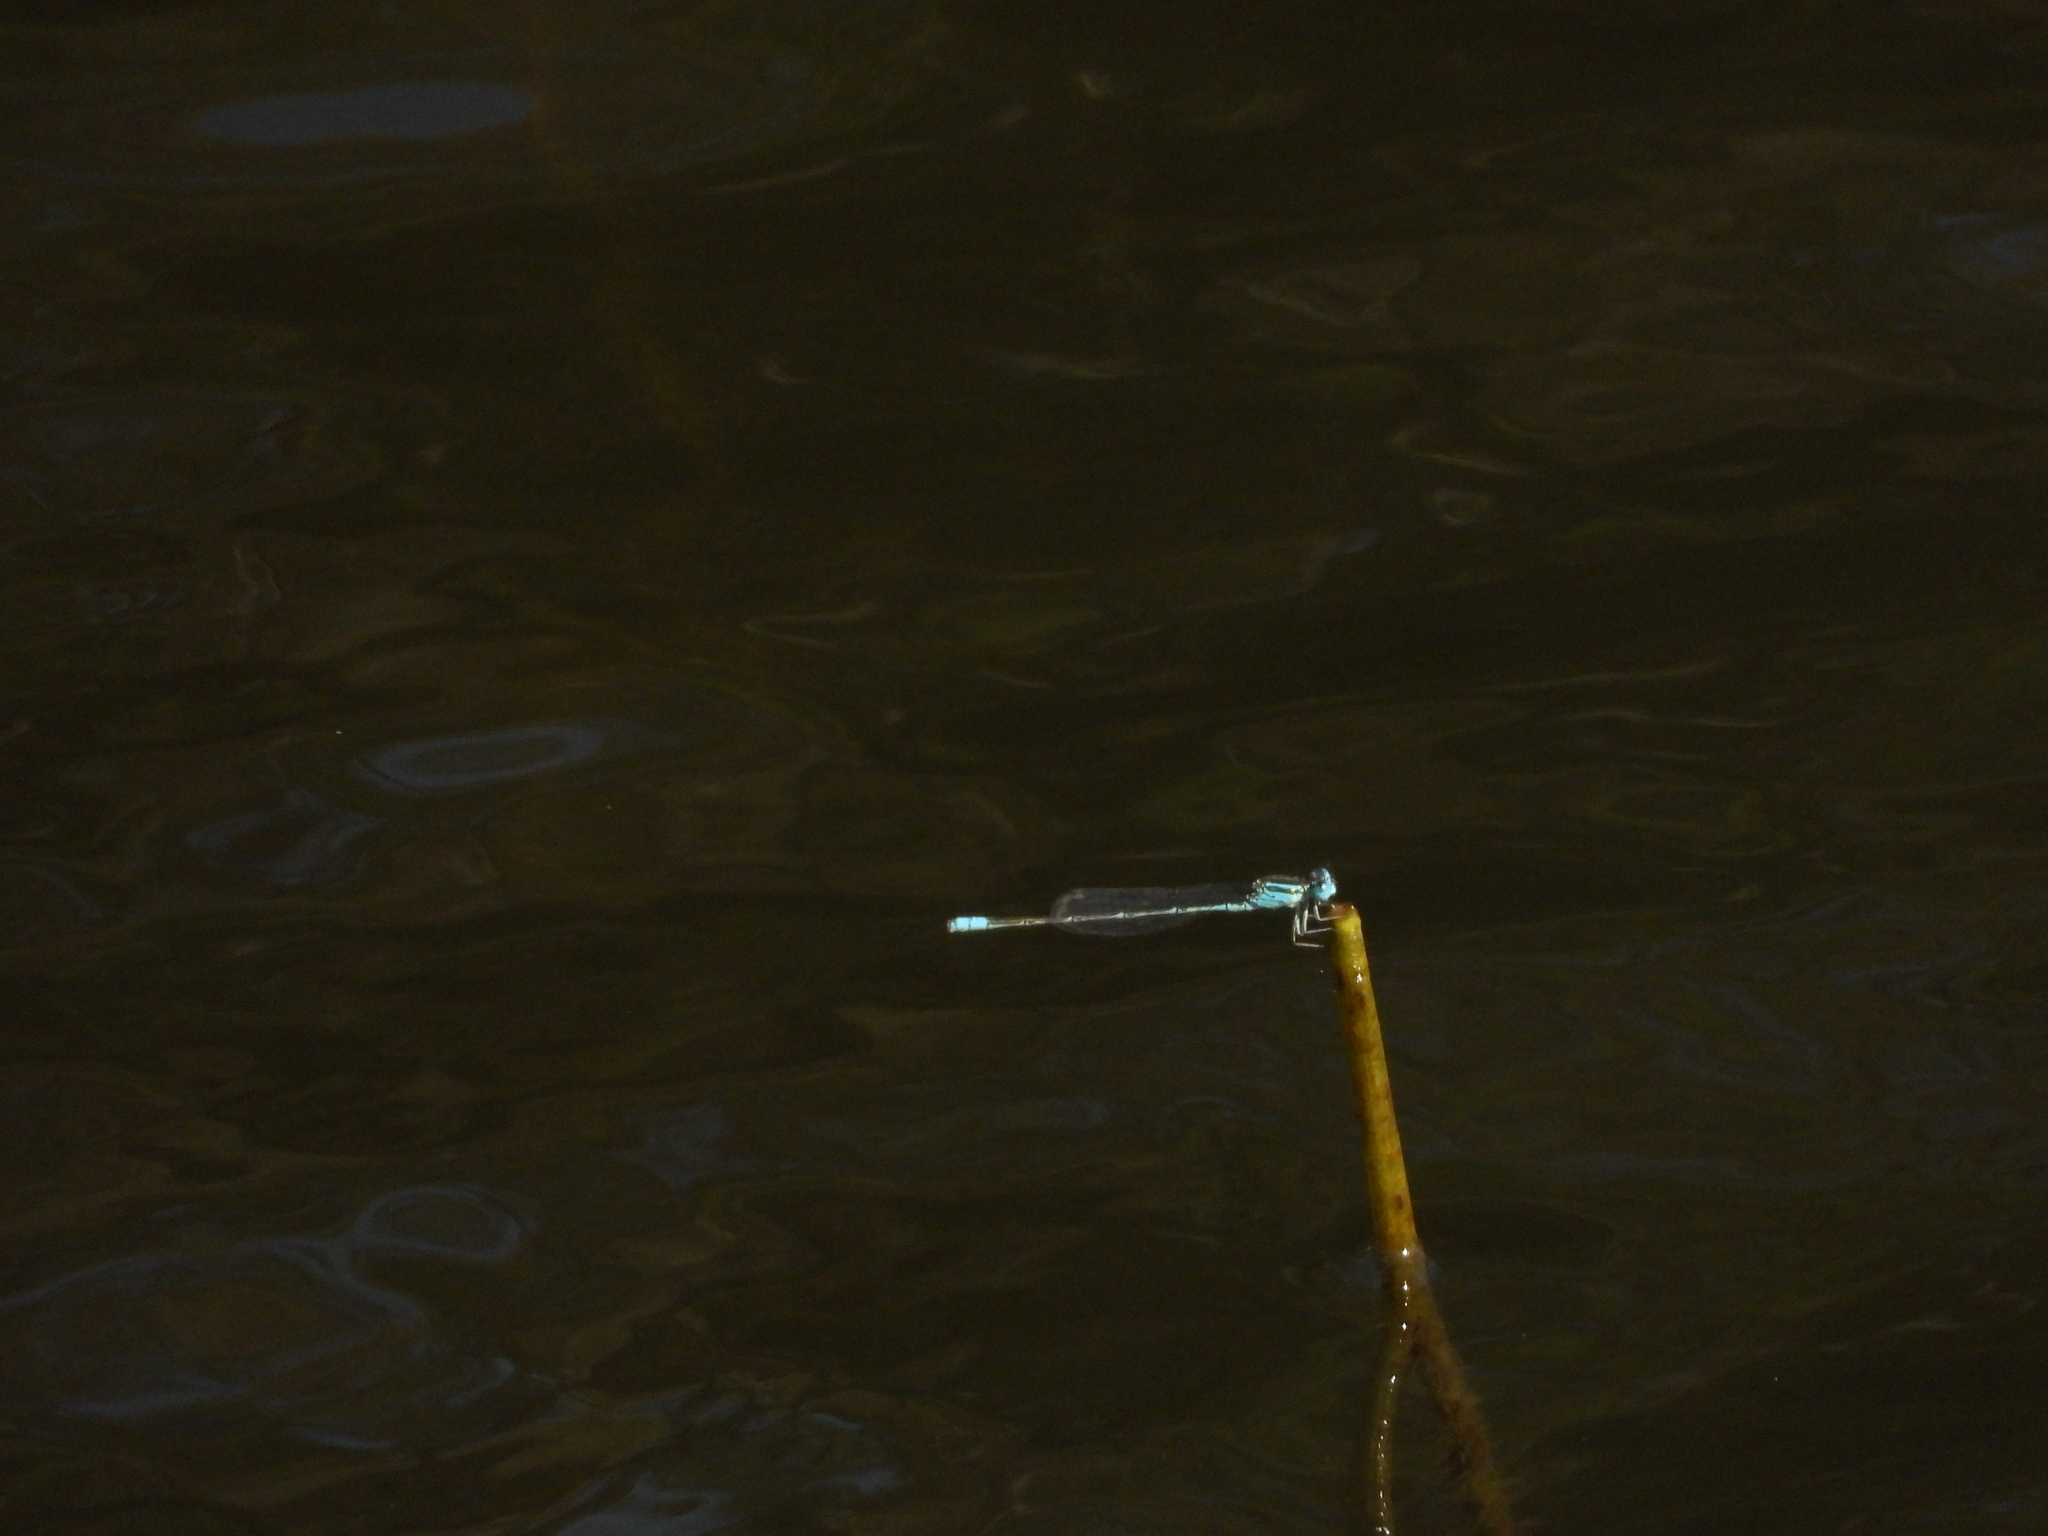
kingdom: Animalia
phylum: Arthropoda
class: Insecta
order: Odonata
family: Coenagrionidae
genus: Paracercion
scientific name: Paracercion melanotum
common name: Eastern lilysquatter
